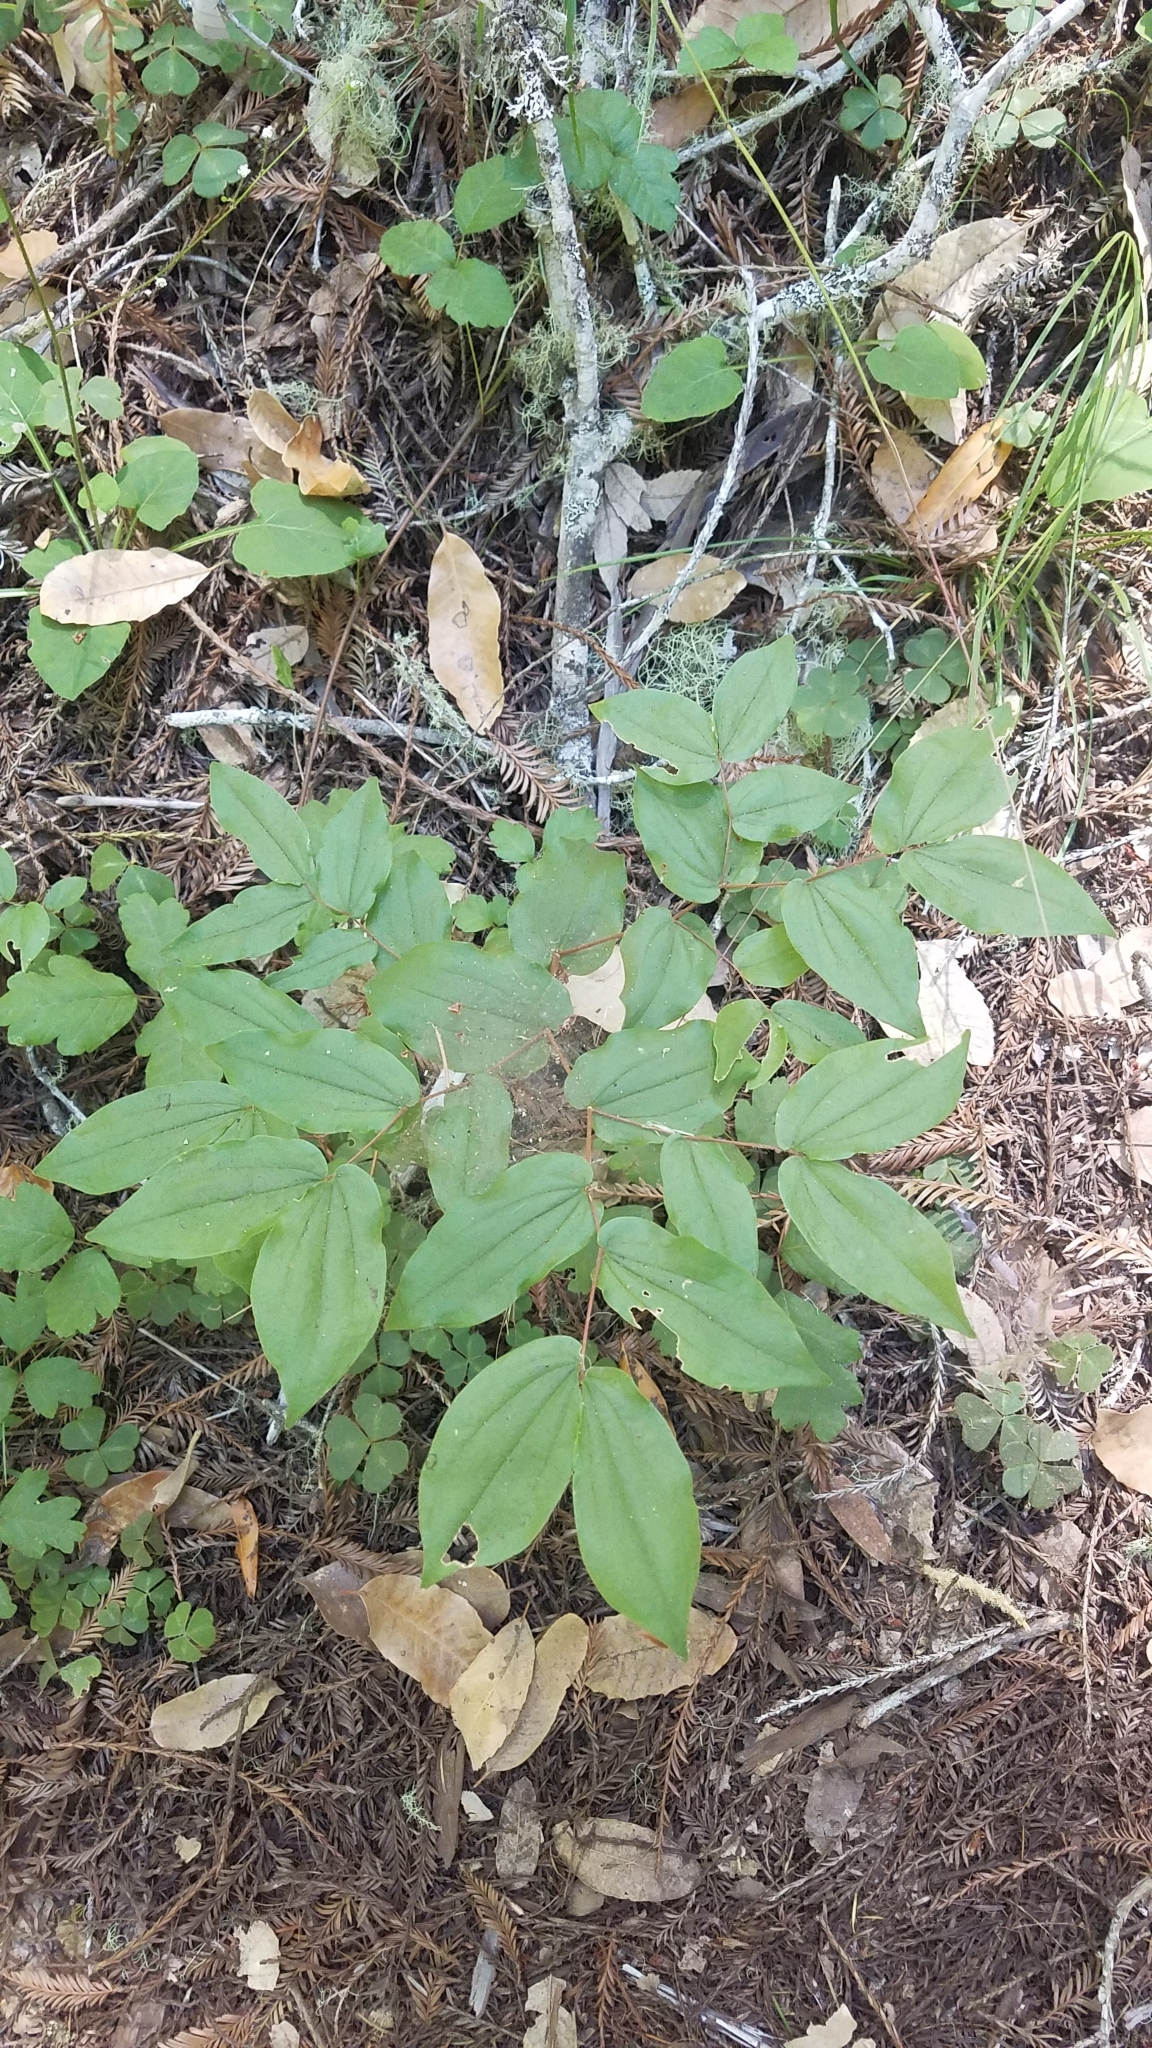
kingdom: Plantae
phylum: Tracheophyta
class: Liliopsida
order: Liliales
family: Liliaceae
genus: Prosartes
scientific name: Prosartes hookeri
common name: Fairy-bells
